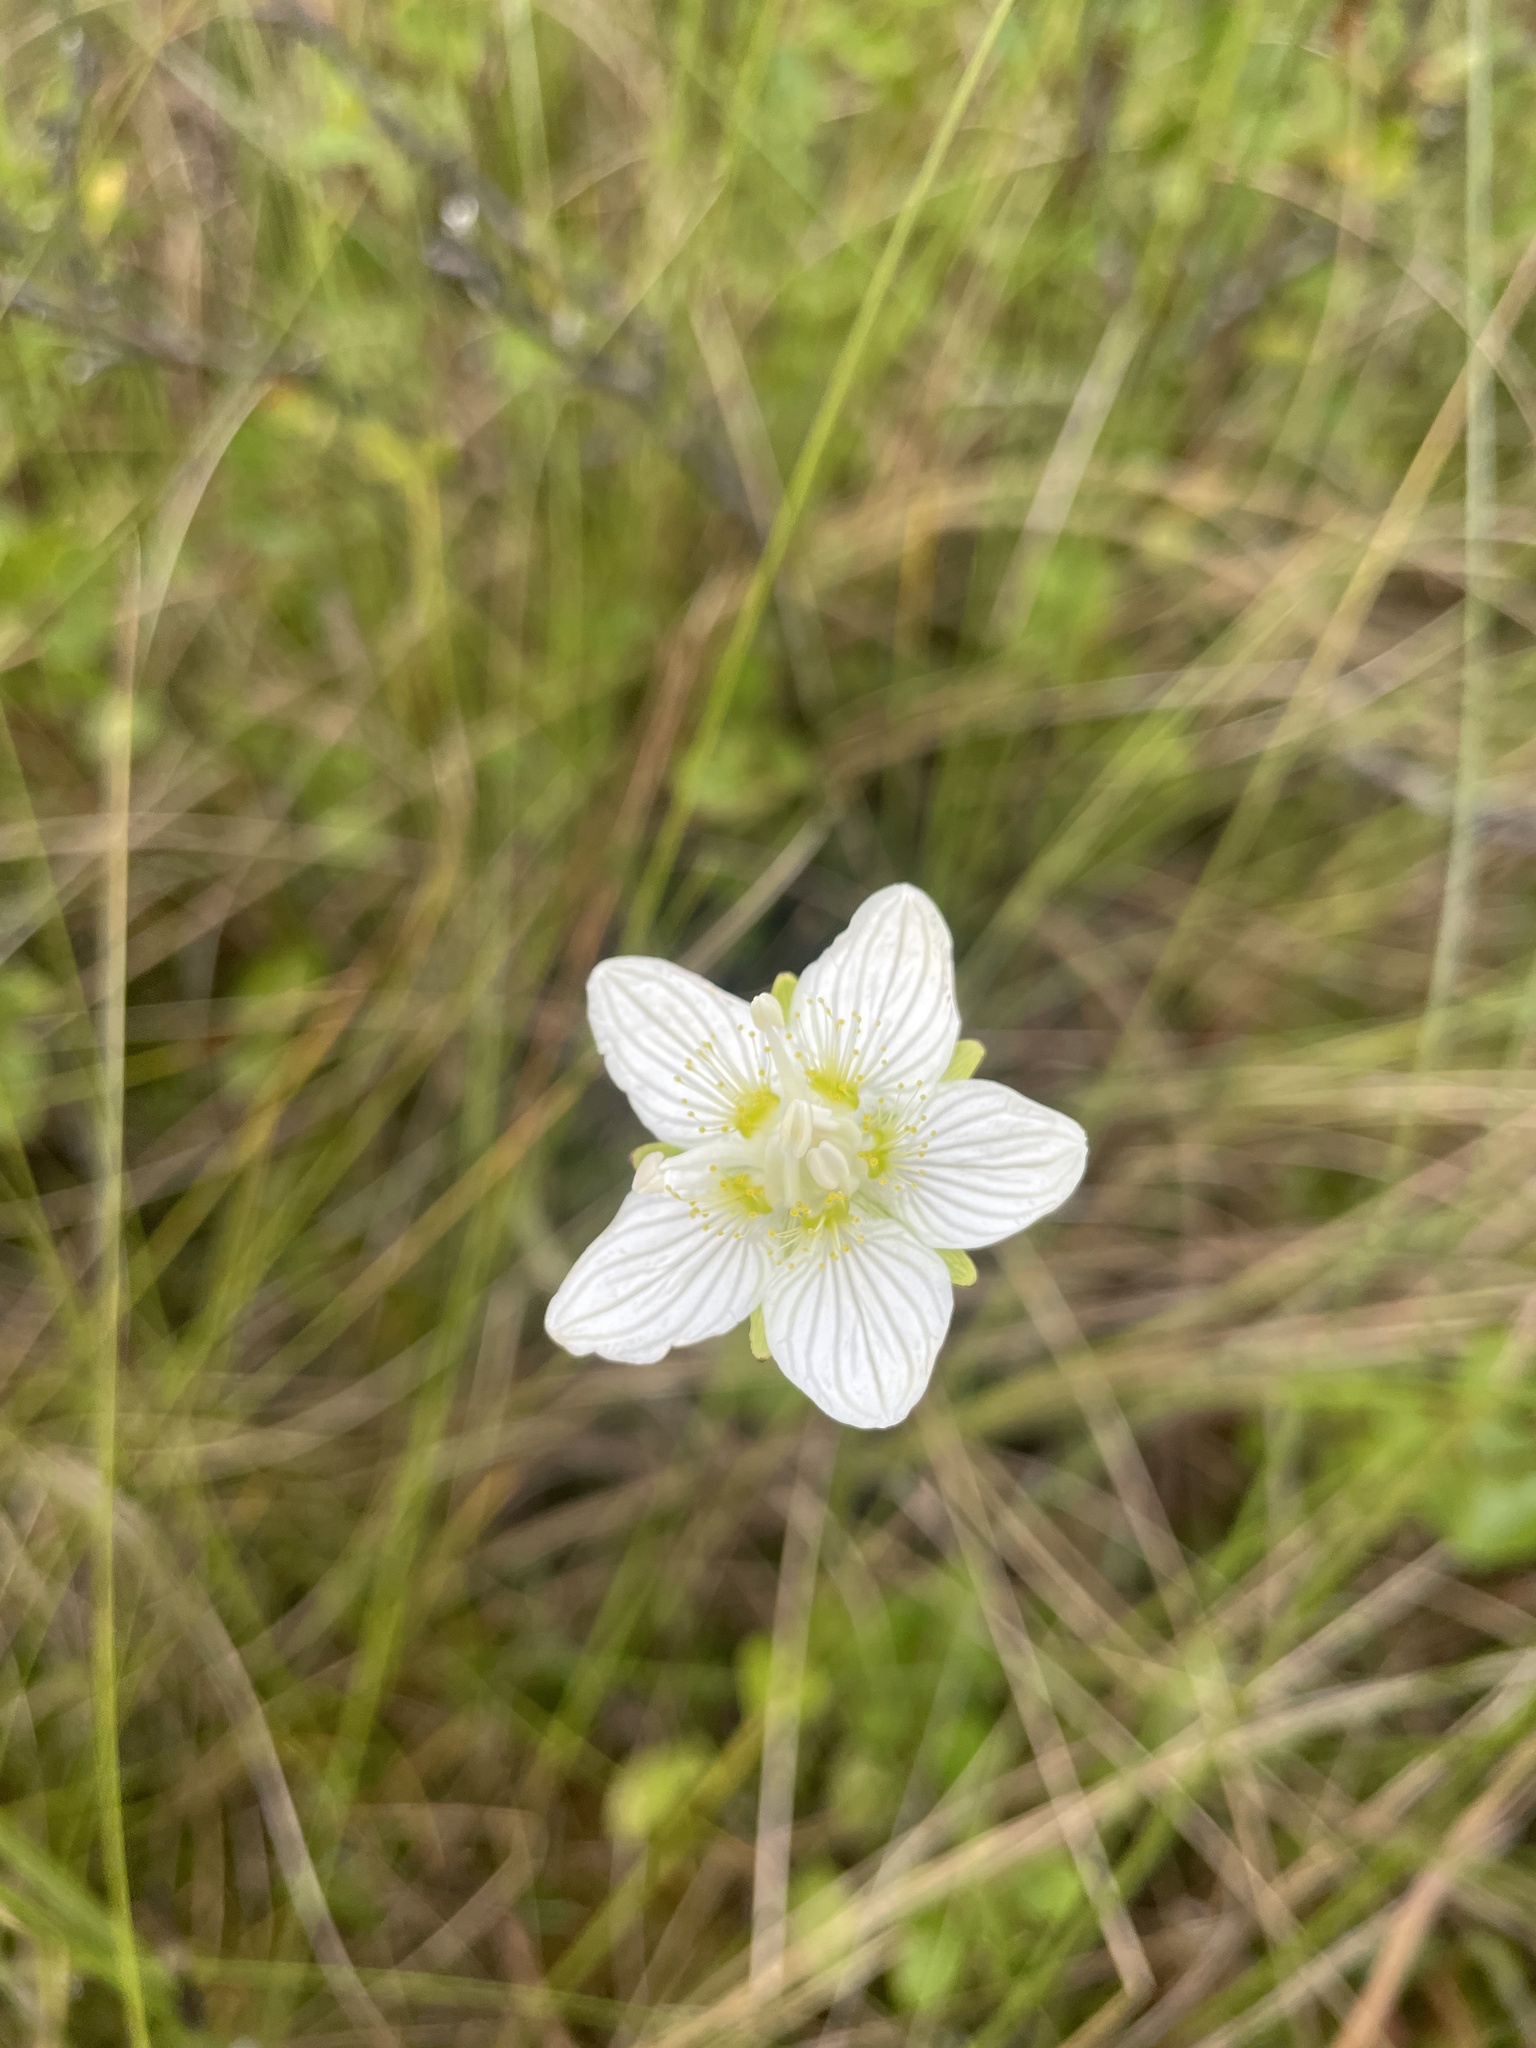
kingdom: Plantae
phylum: Tracheophyta
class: Magnoliopsida
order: Celastrales
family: Parnassiaceae
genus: Parnassia
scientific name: Parnassia palustris
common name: Grass-of-parnassus
